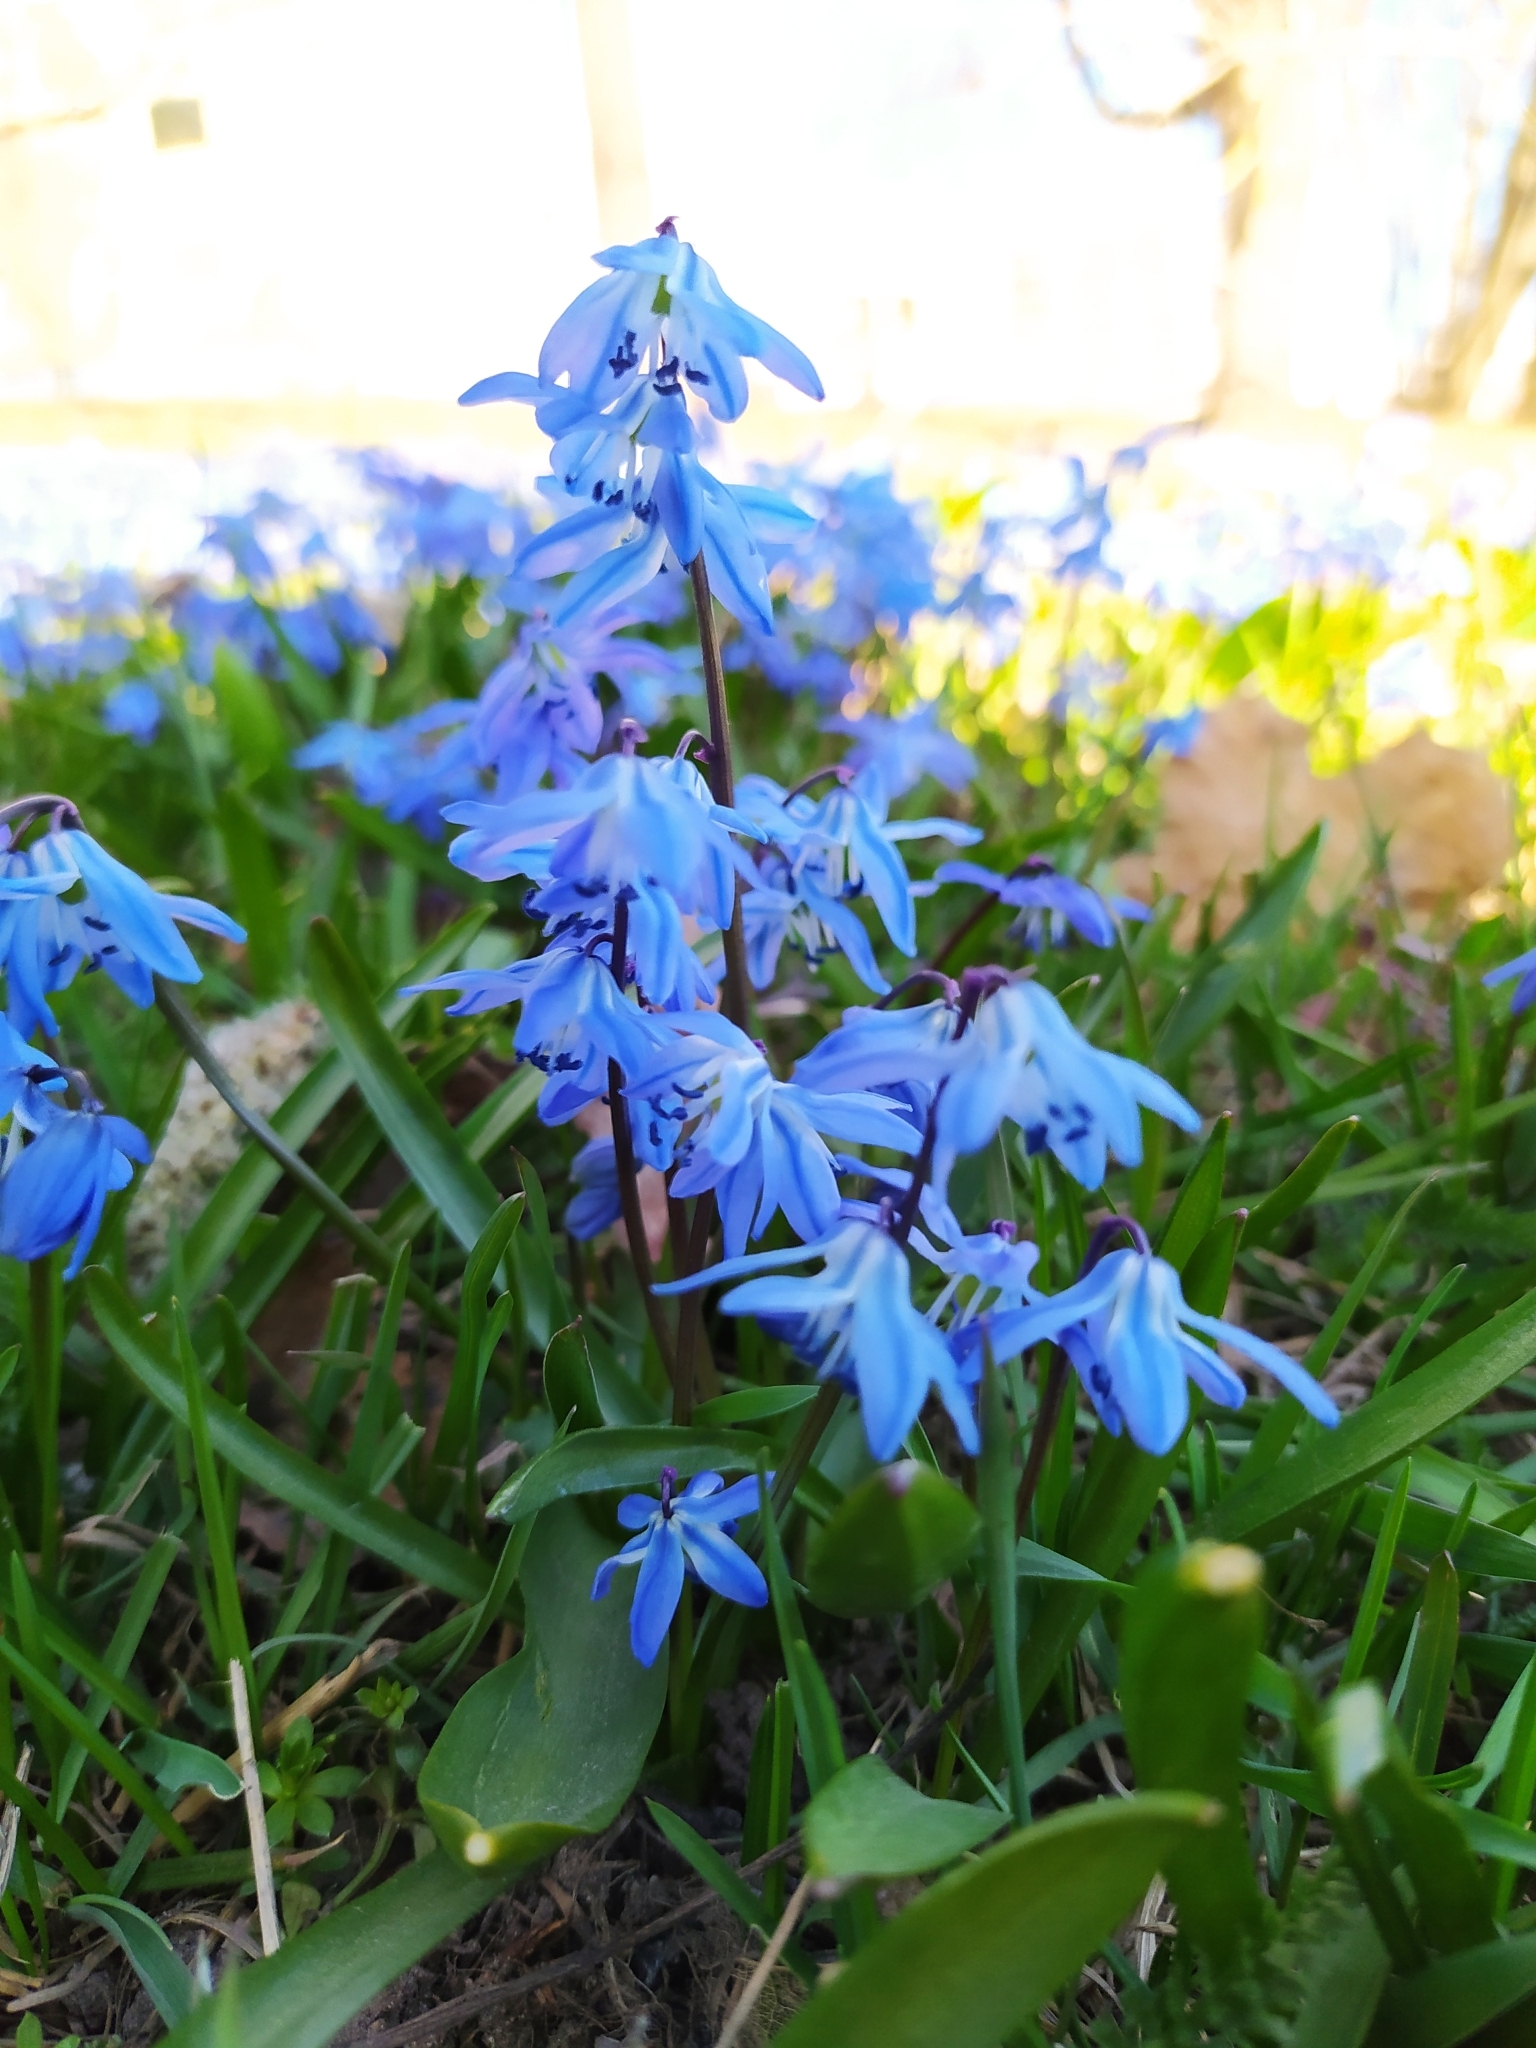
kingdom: Plantae
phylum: Tracheophyta
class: Liliopsida
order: Asparagales
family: Asparagaceae
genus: Scilla
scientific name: Scilla siberica
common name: Siberian squill
